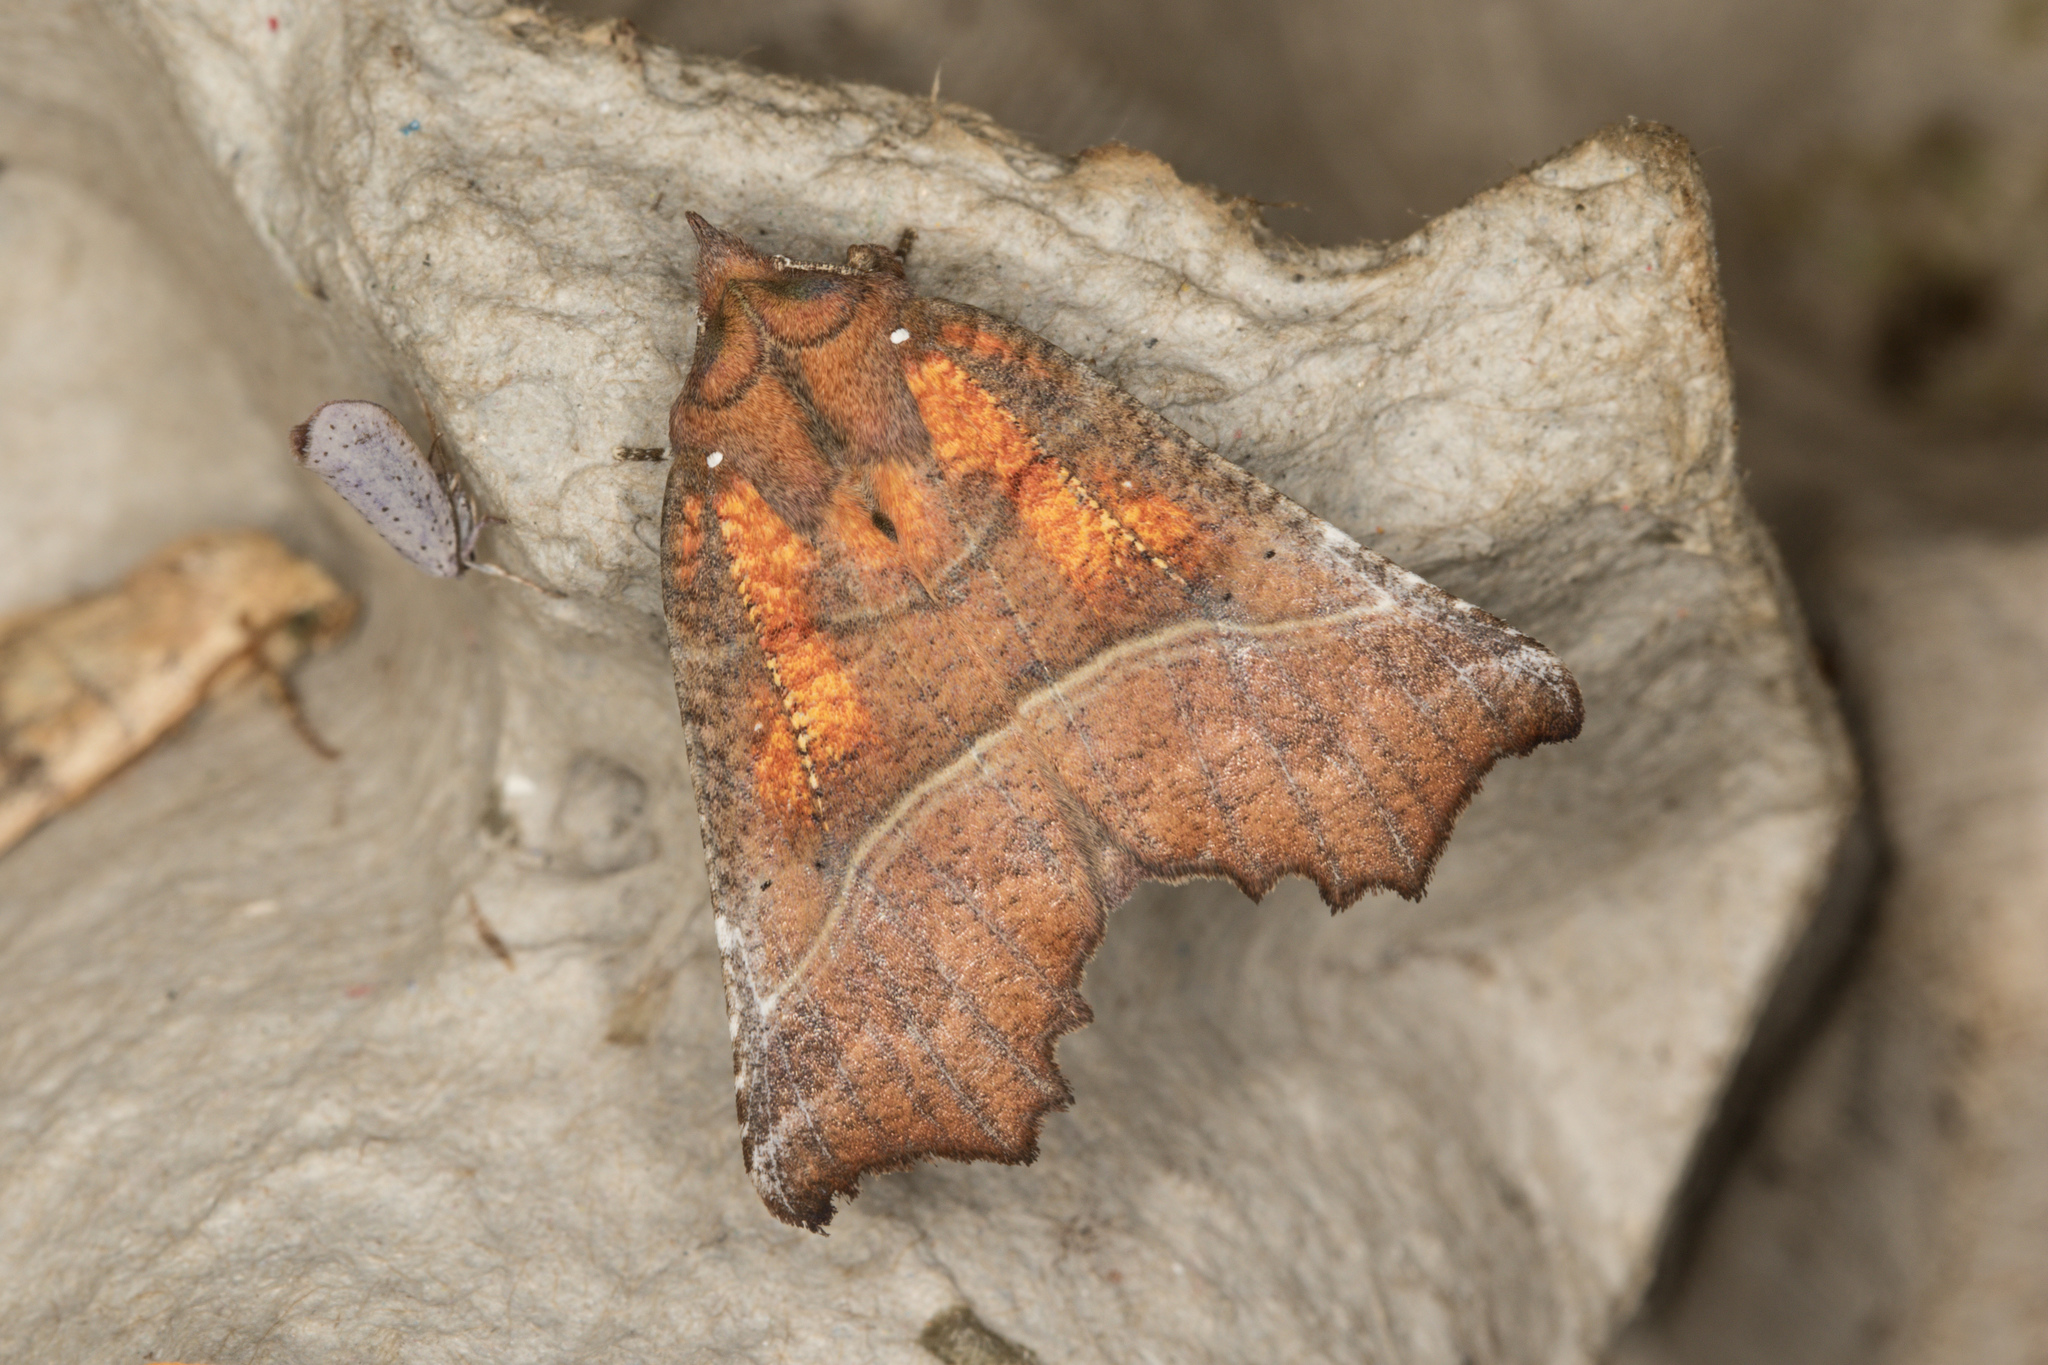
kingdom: Animalia
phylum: Arthropoda
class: Insecta
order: Lepidoptera
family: Erebidae
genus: Scoliopteryx
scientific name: Scoliopteryx libatrix
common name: Herald
